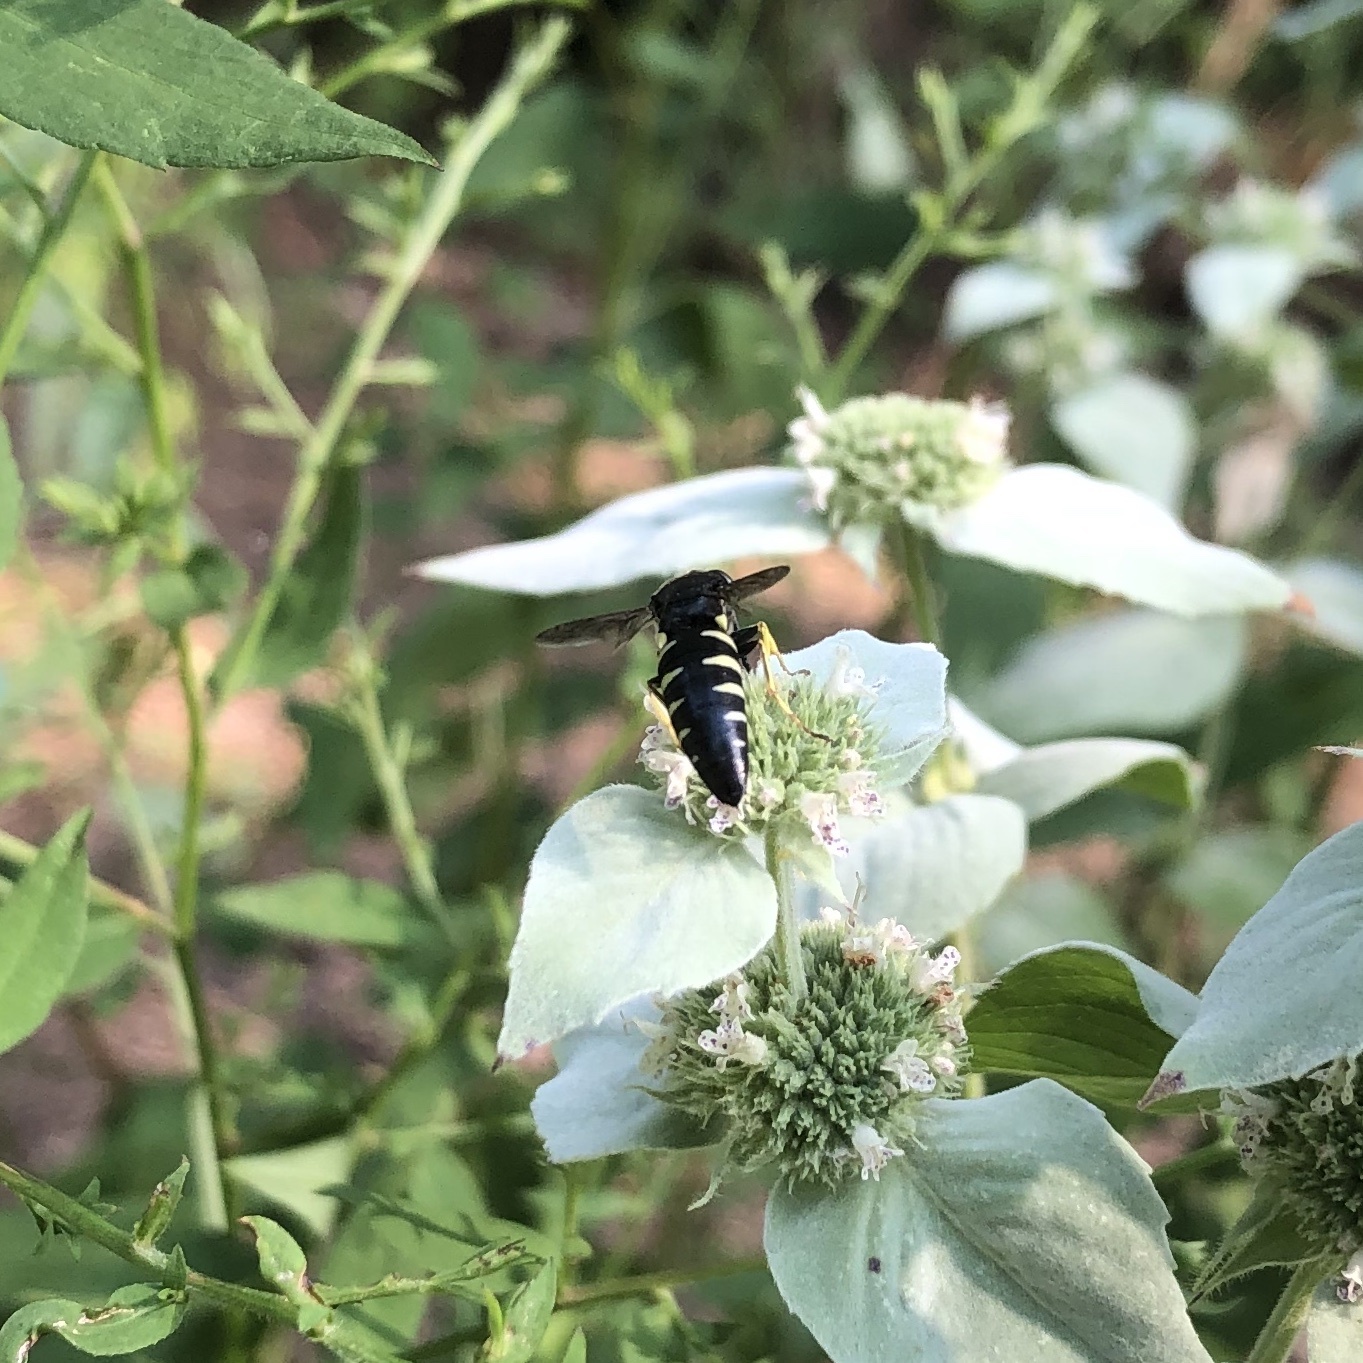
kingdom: Animalia
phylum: Arthropoda
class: Insecta
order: Hymenoptera
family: Crabronidae
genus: Bicyrtes
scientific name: Bicyrtes quadrifasciatus
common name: Four-banded stink bug hunter wasp
